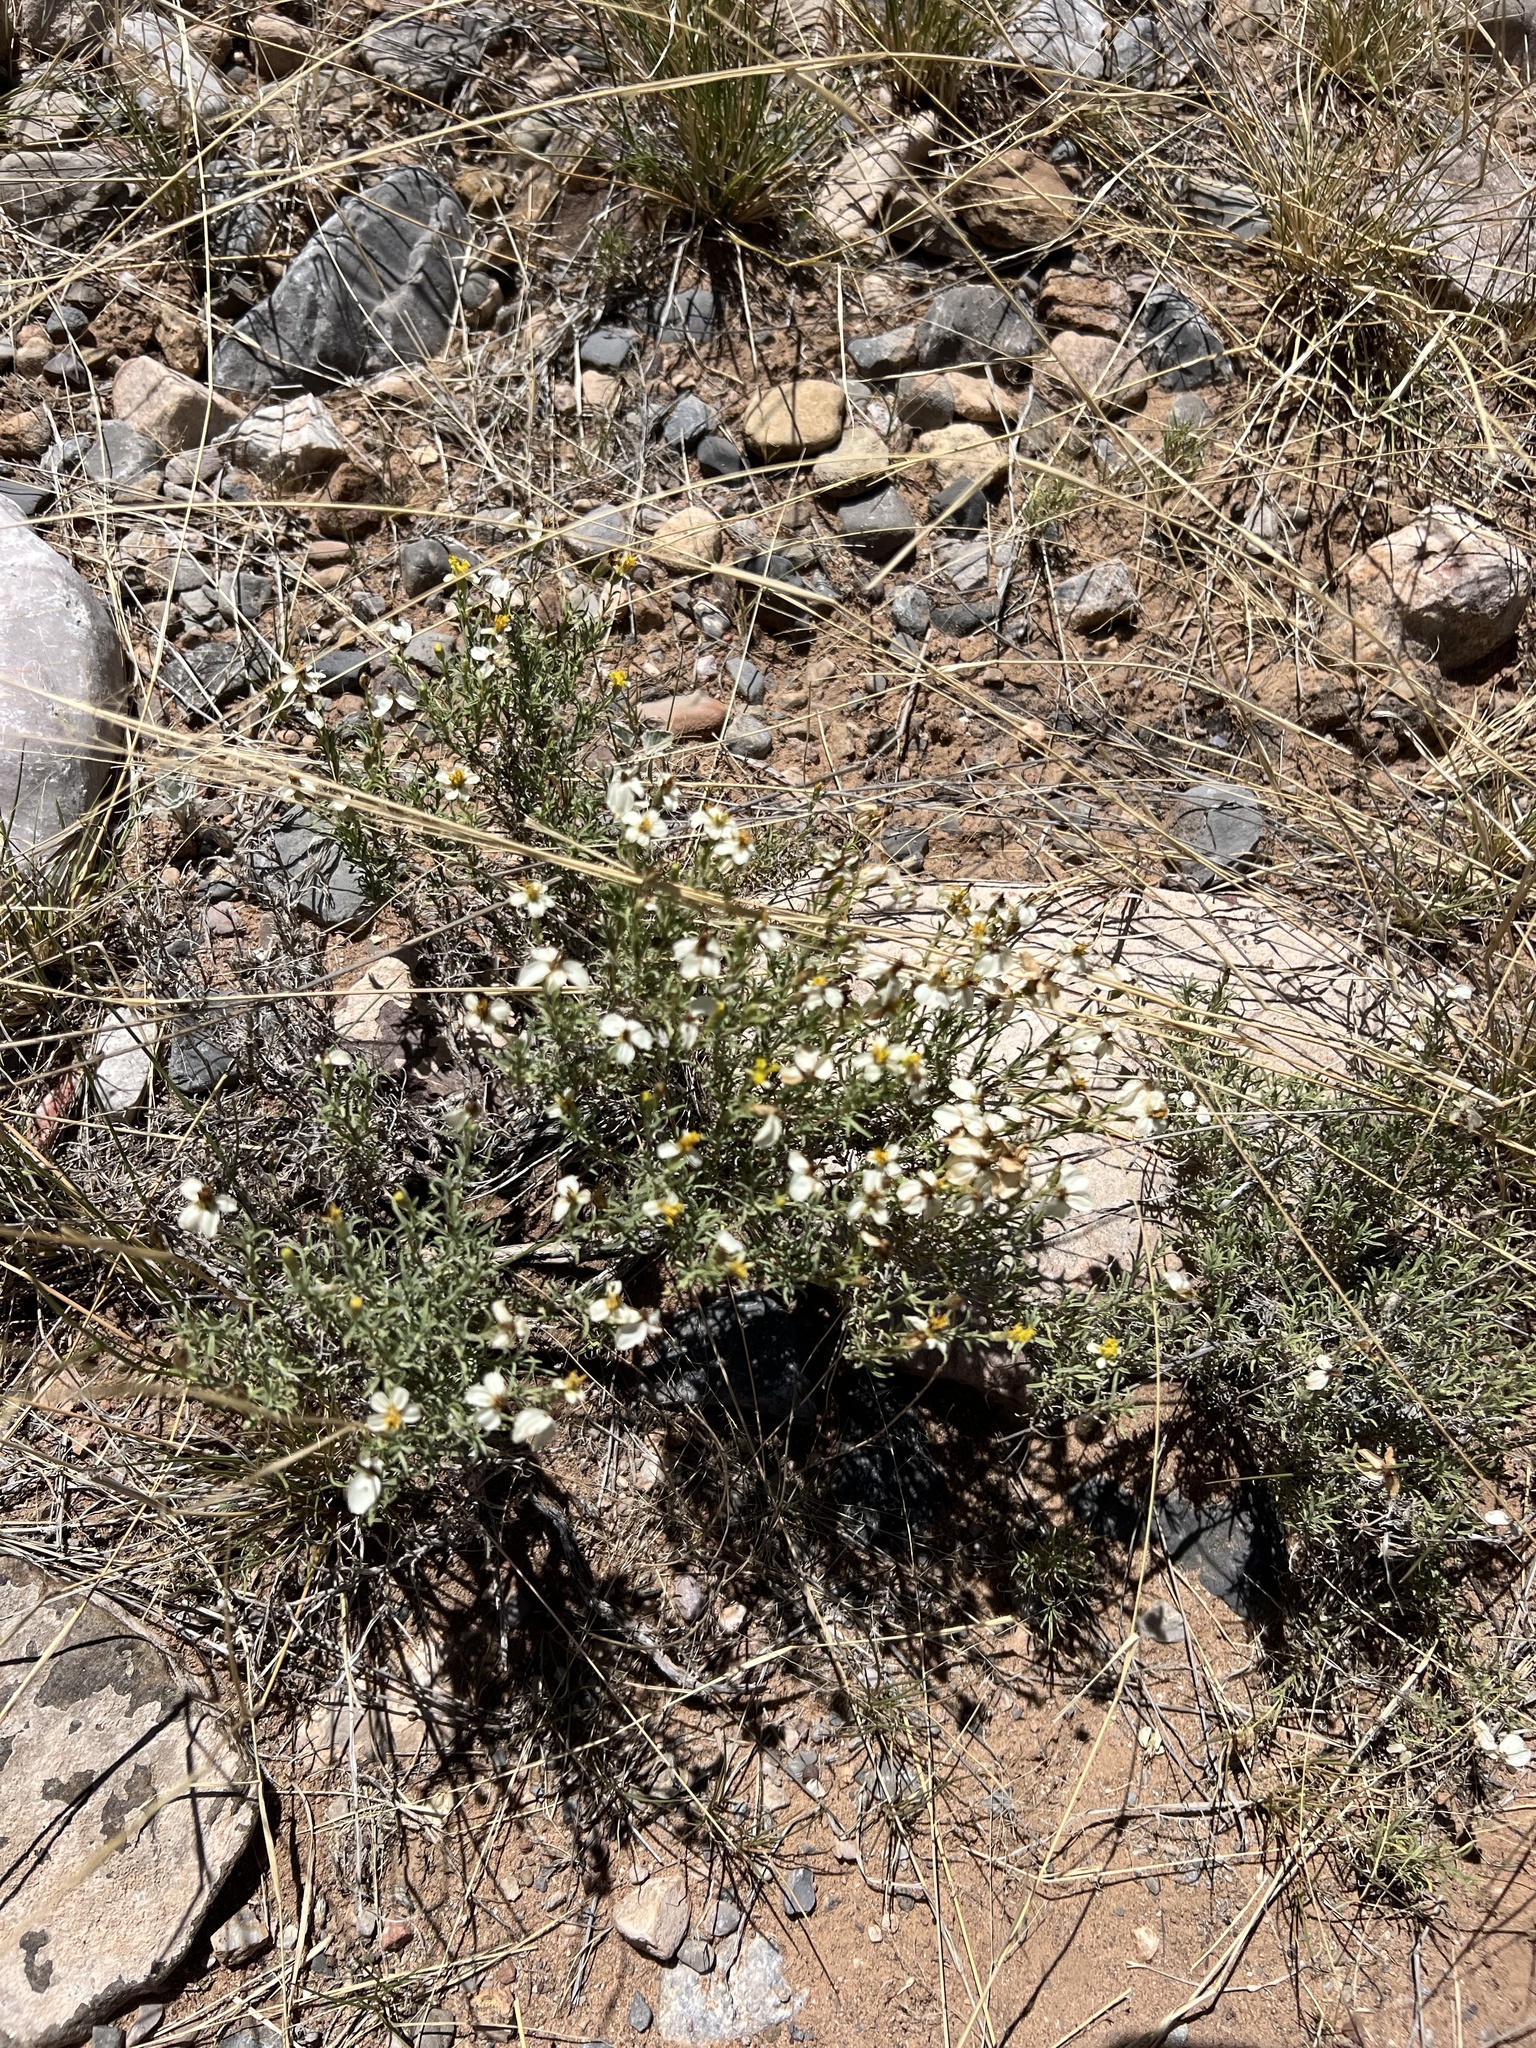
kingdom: Plantae
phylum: Tracheophyta
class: Magnoliopsida
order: Asterales
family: Asteraceae
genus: Zinnia
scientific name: Zinnia acerosa
